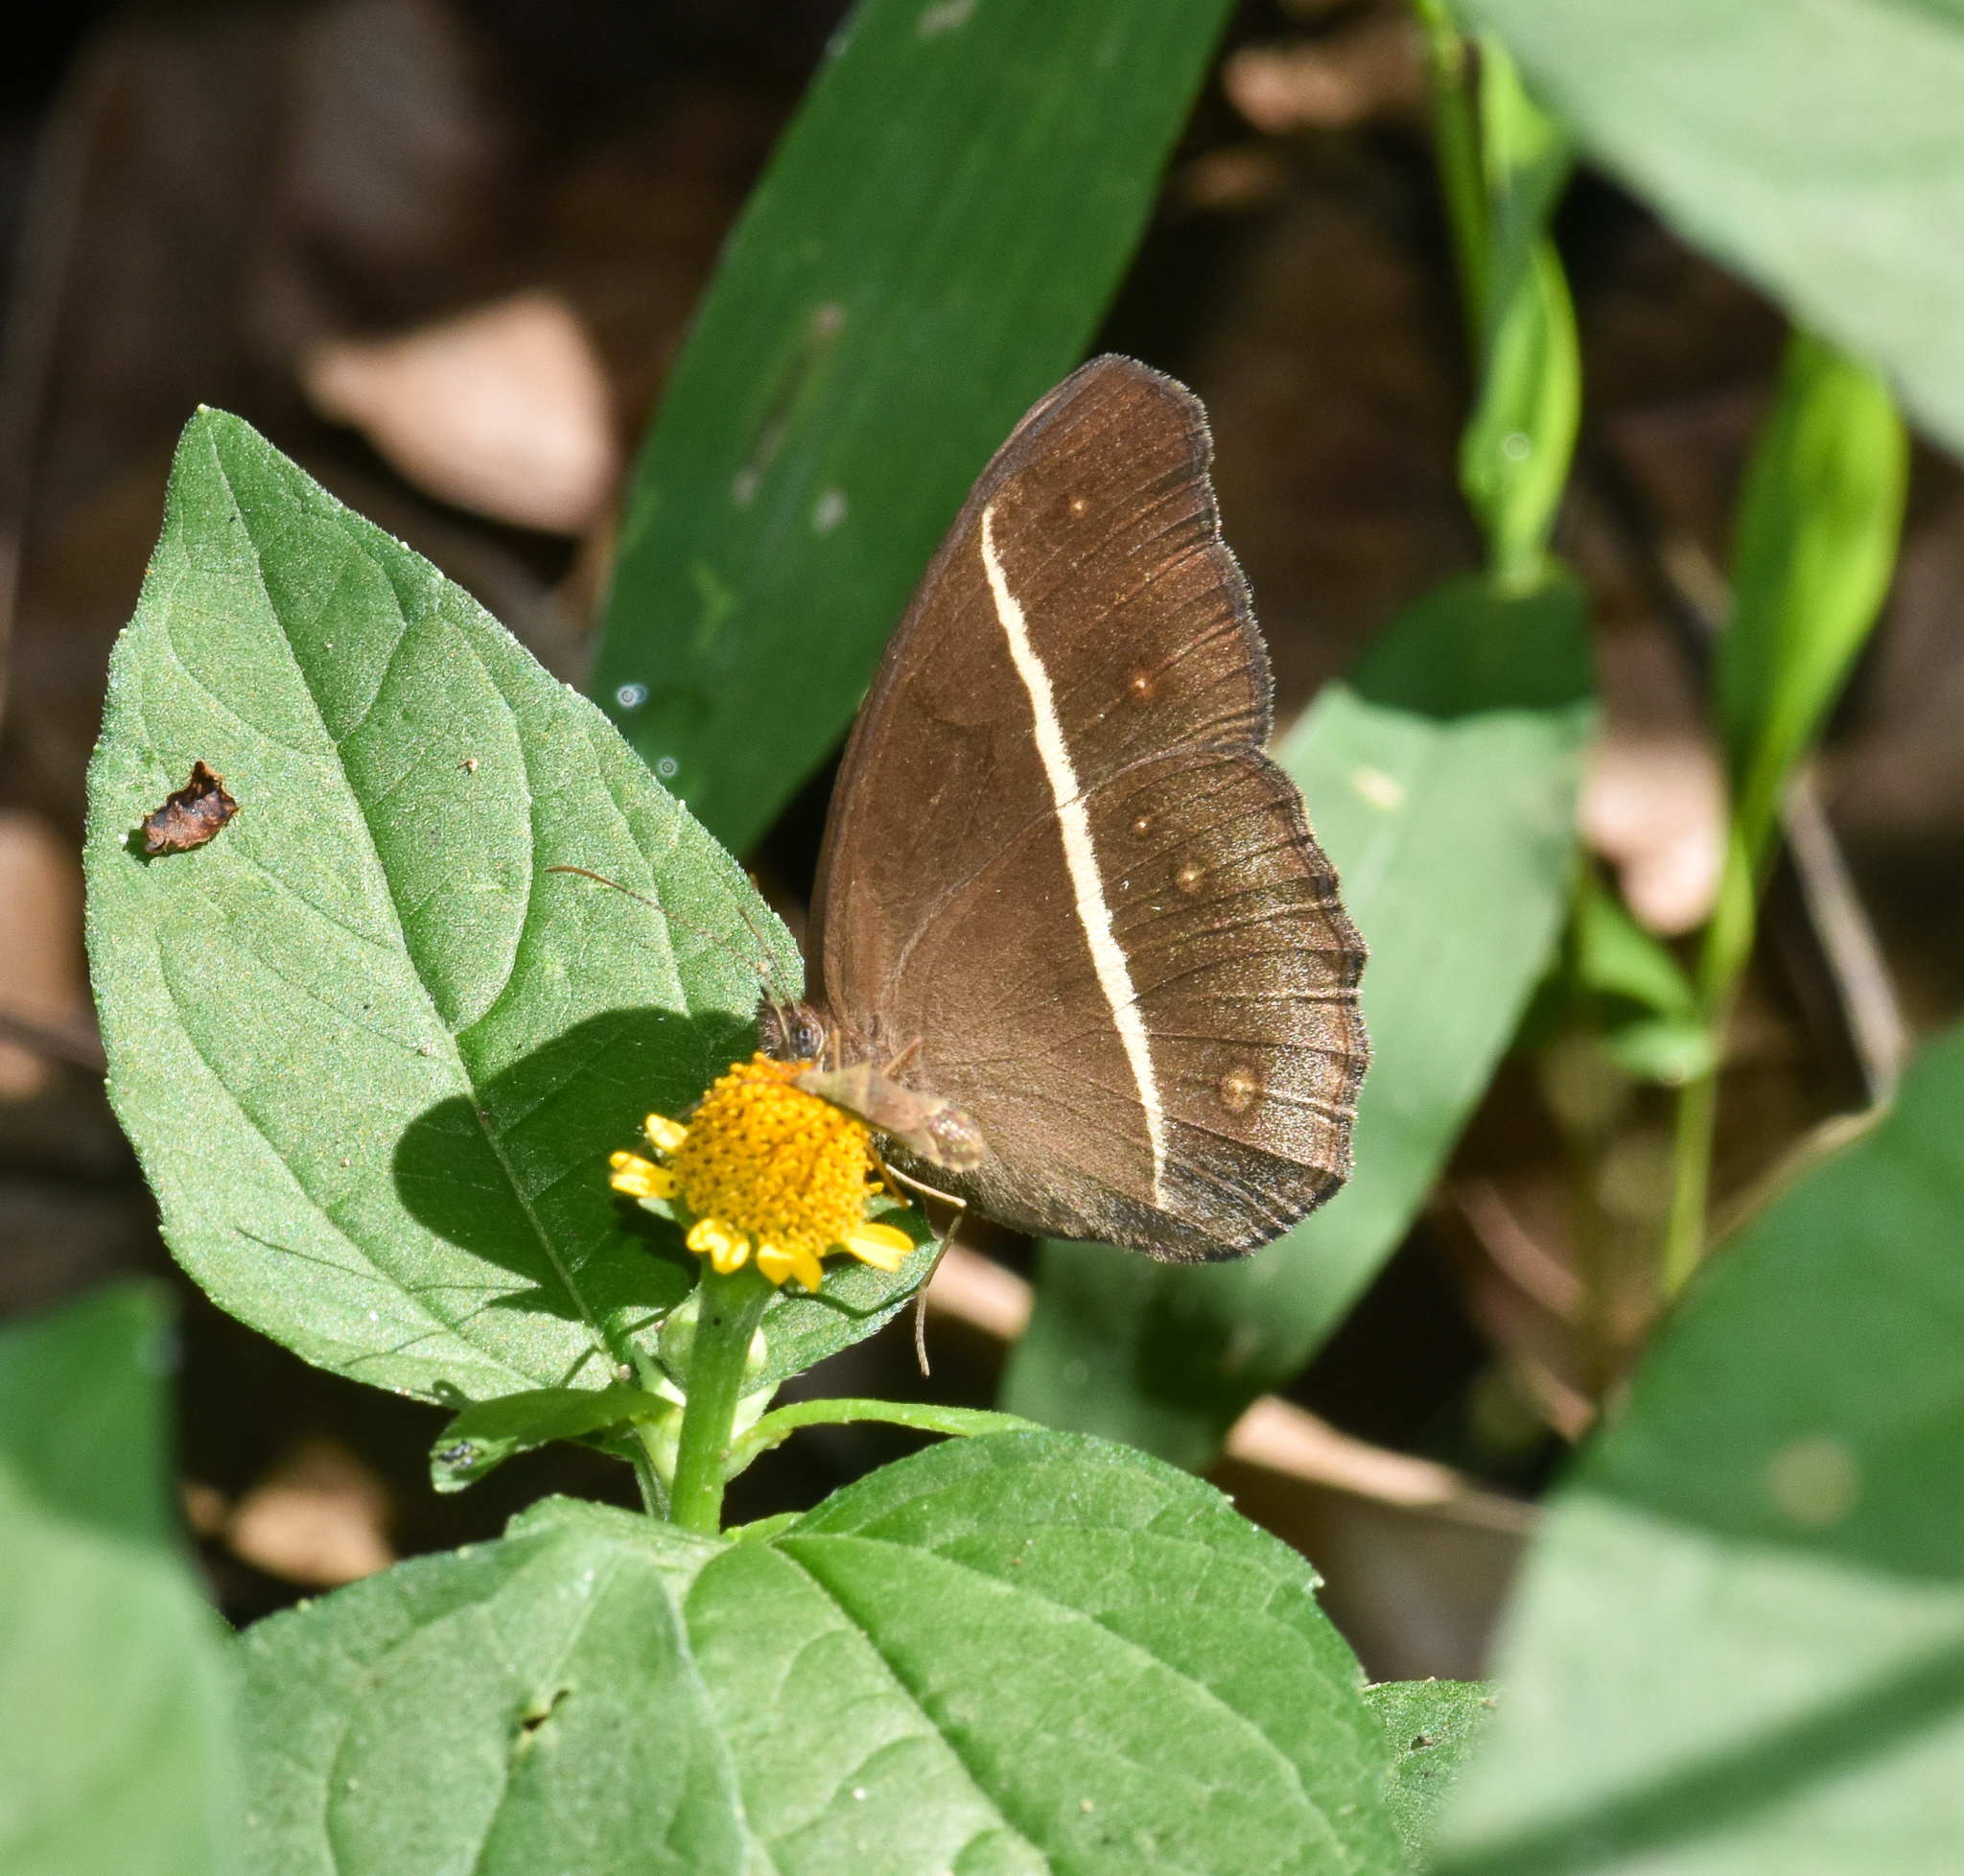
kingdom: Animalia
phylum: Arthropoda
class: Insecta
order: Lepidoptera
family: Nymphalidae
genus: Orsotriaena
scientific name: Orsotriaena medus
